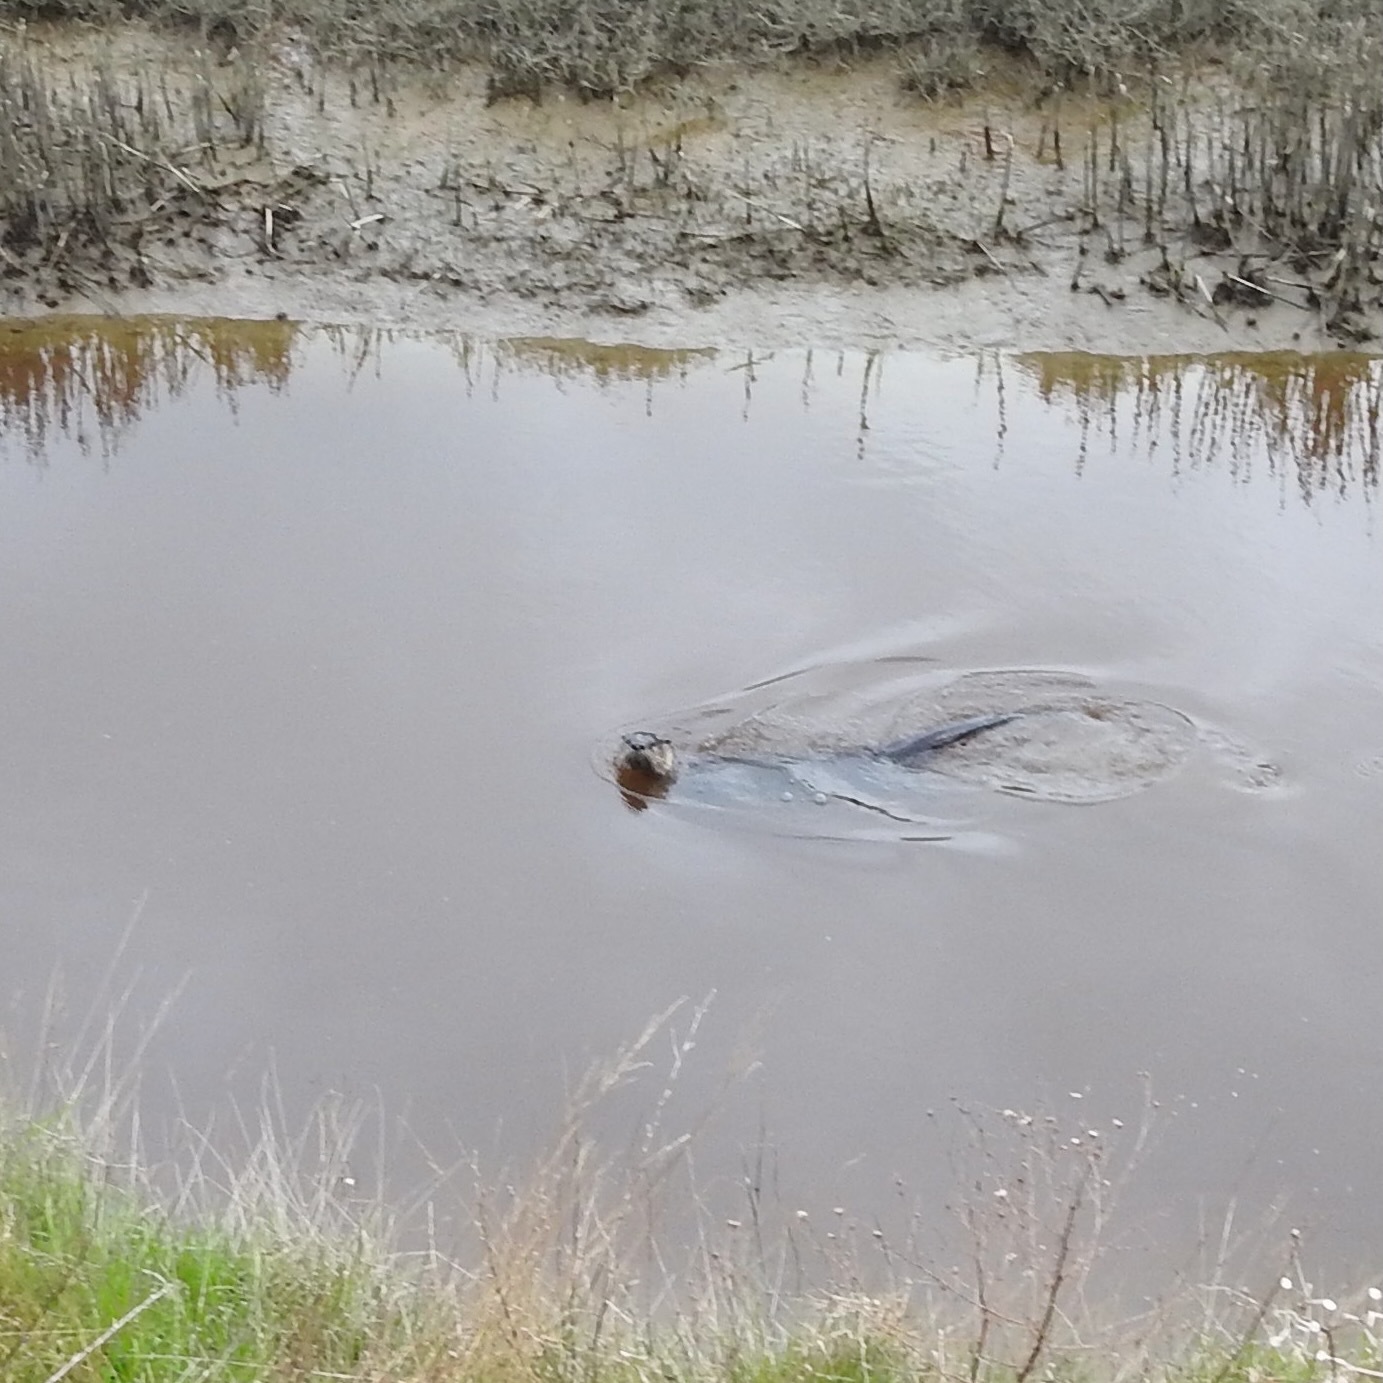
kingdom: Animalia
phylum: Chordata
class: Mammalia
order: Carnivora
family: Mustelidae
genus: Lontra
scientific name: Lontra canadensis
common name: North american river otter
